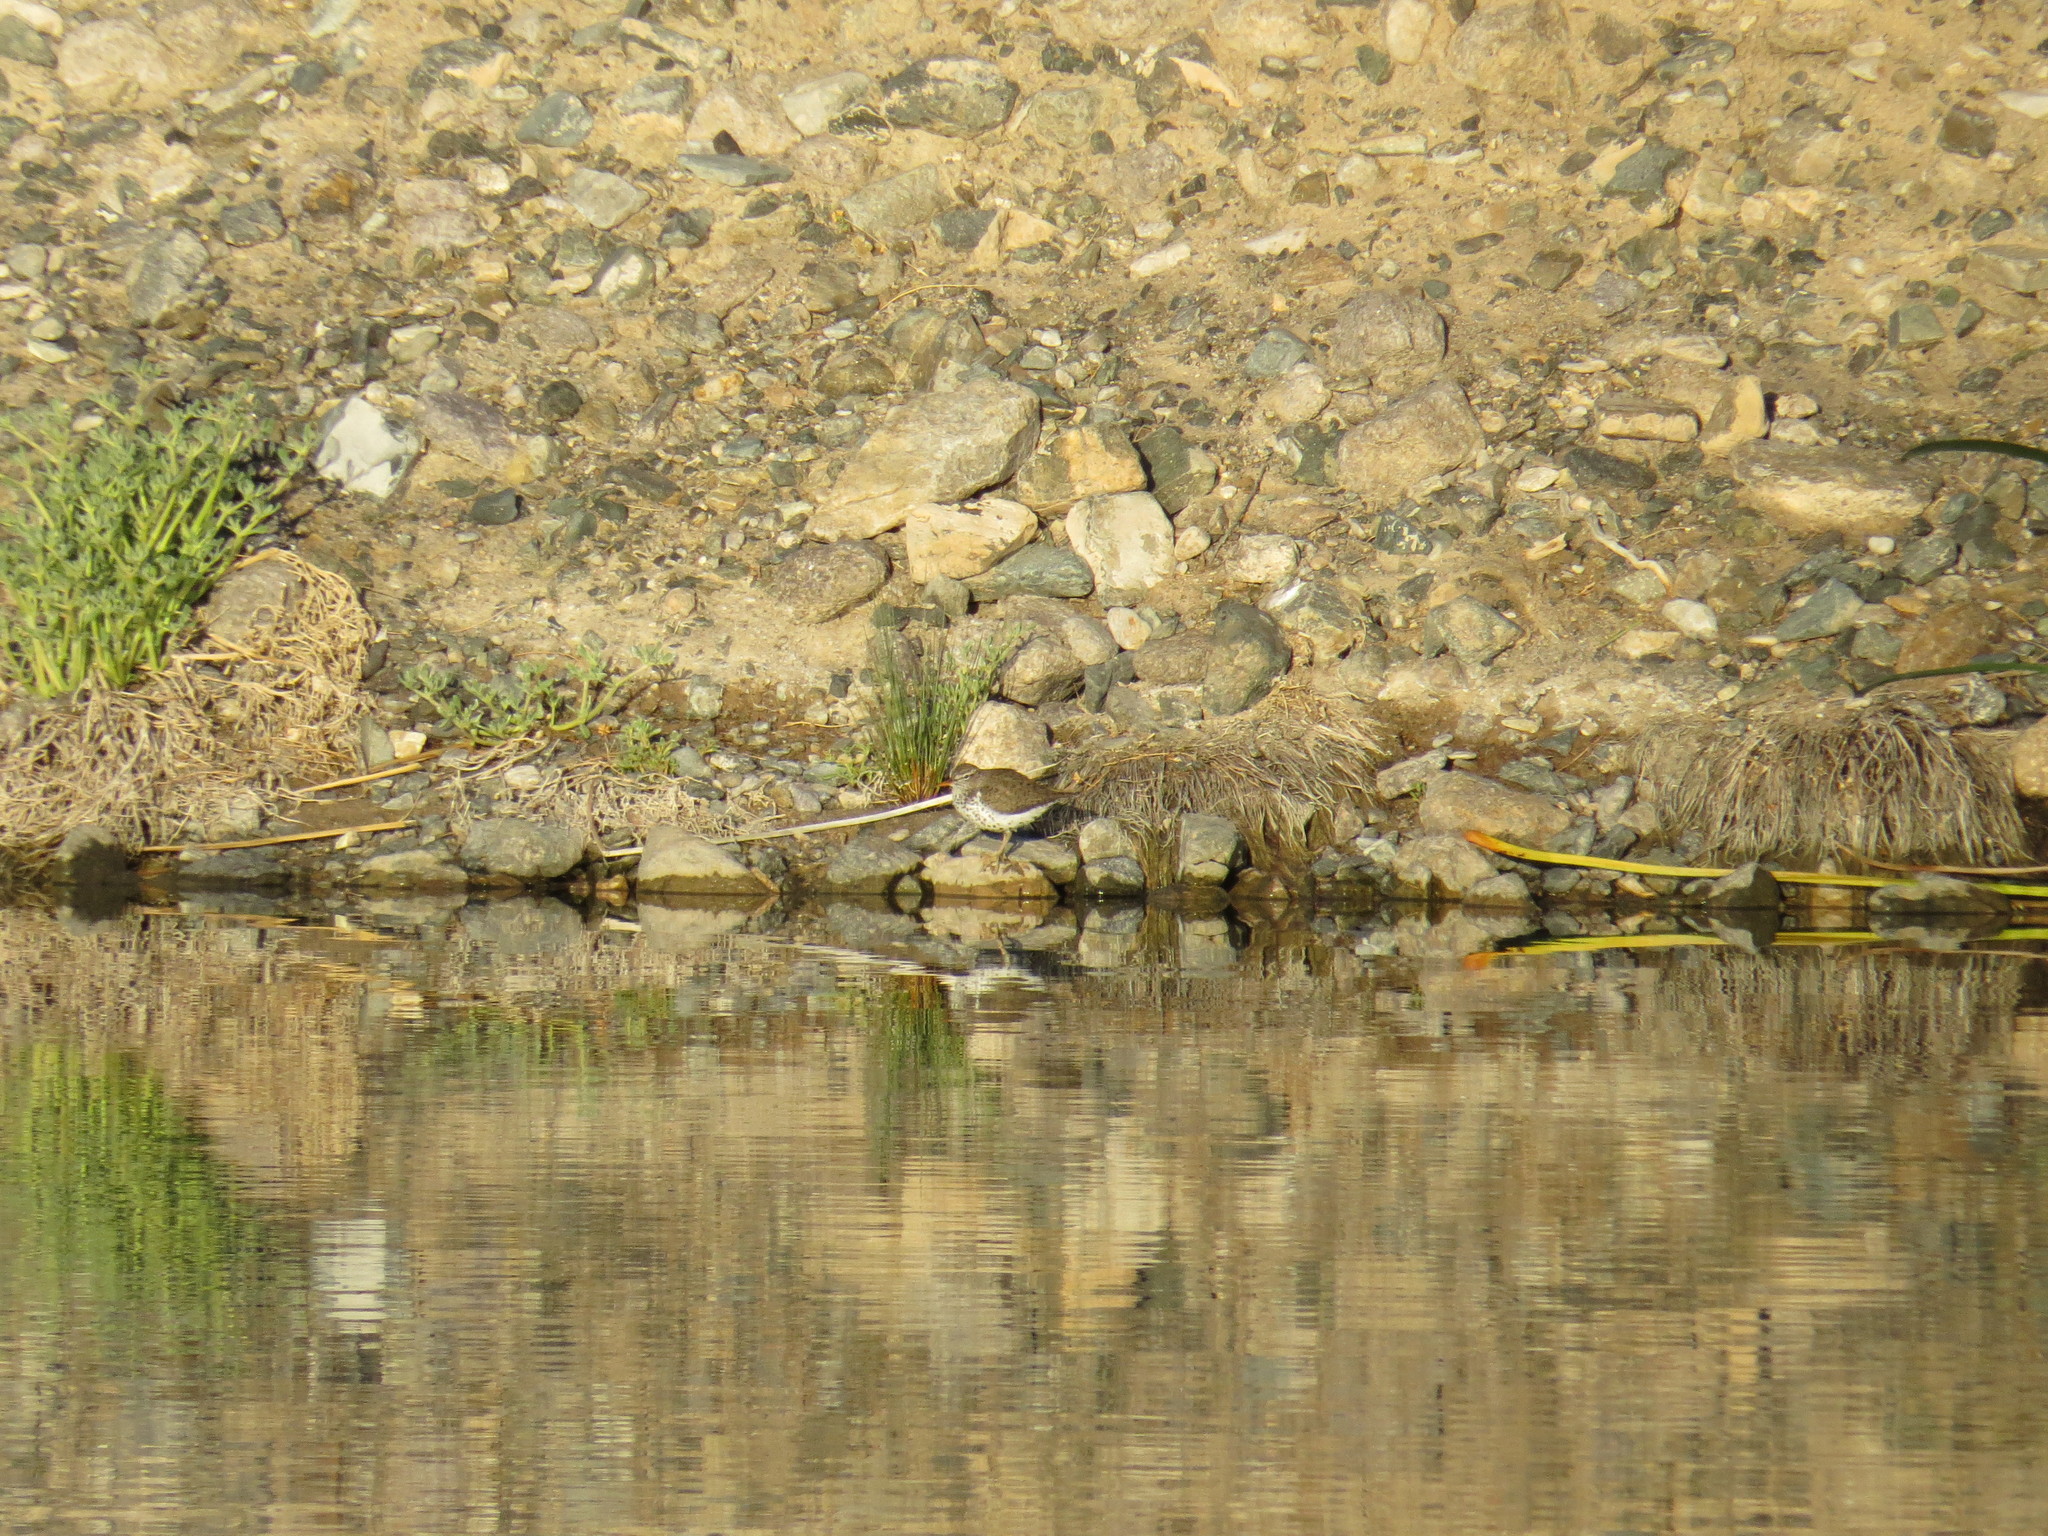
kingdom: Animalia
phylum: Chordata
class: Aves
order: Charadriiformes
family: Scolopacidae
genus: Actitis
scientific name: Actitis macularius
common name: Spotted sandpiper
